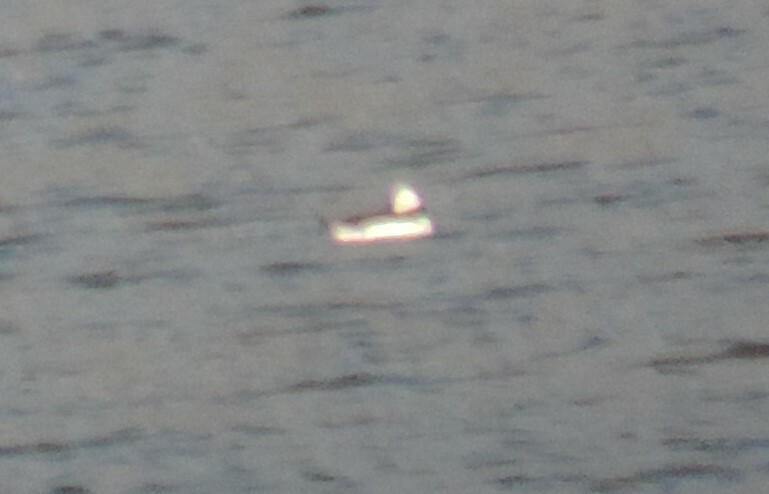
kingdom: Animalia
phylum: Chordata
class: Aves
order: Anseriformes
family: Anatidae
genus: Bucephala
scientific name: Bucephala albeola
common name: Bufflehead
